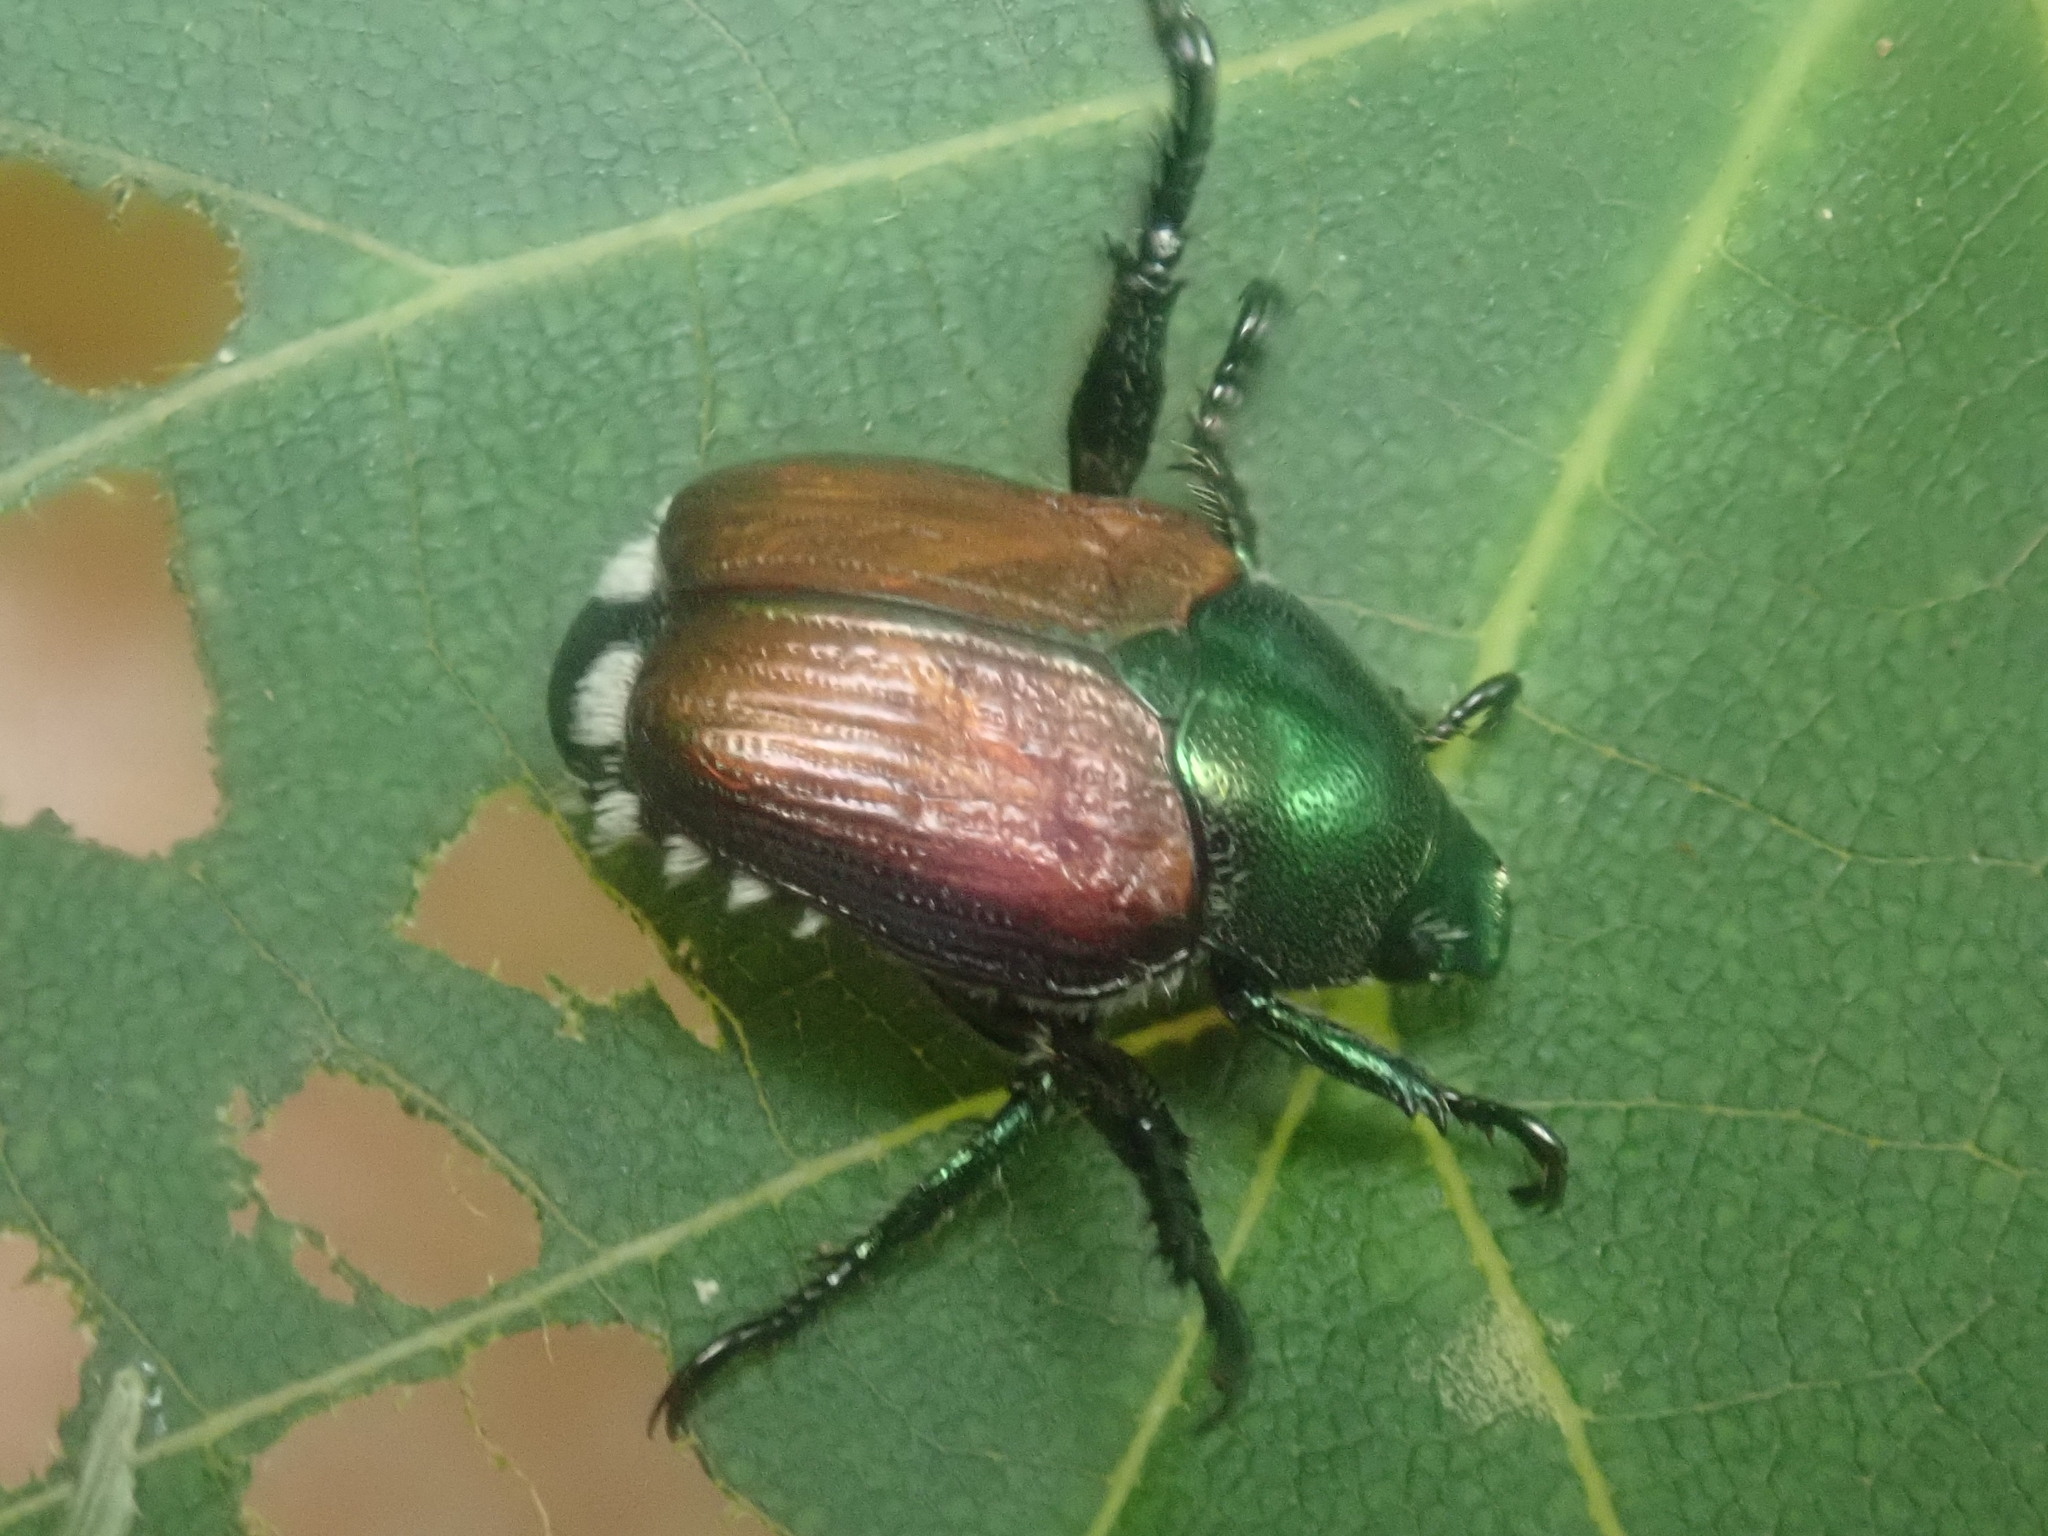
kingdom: Animalia
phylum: Arthropoda
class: Insecta
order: Coleoptera
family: Scarabaeidae
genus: Popillia
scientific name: Popillia japonica
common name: Japanese beetle
